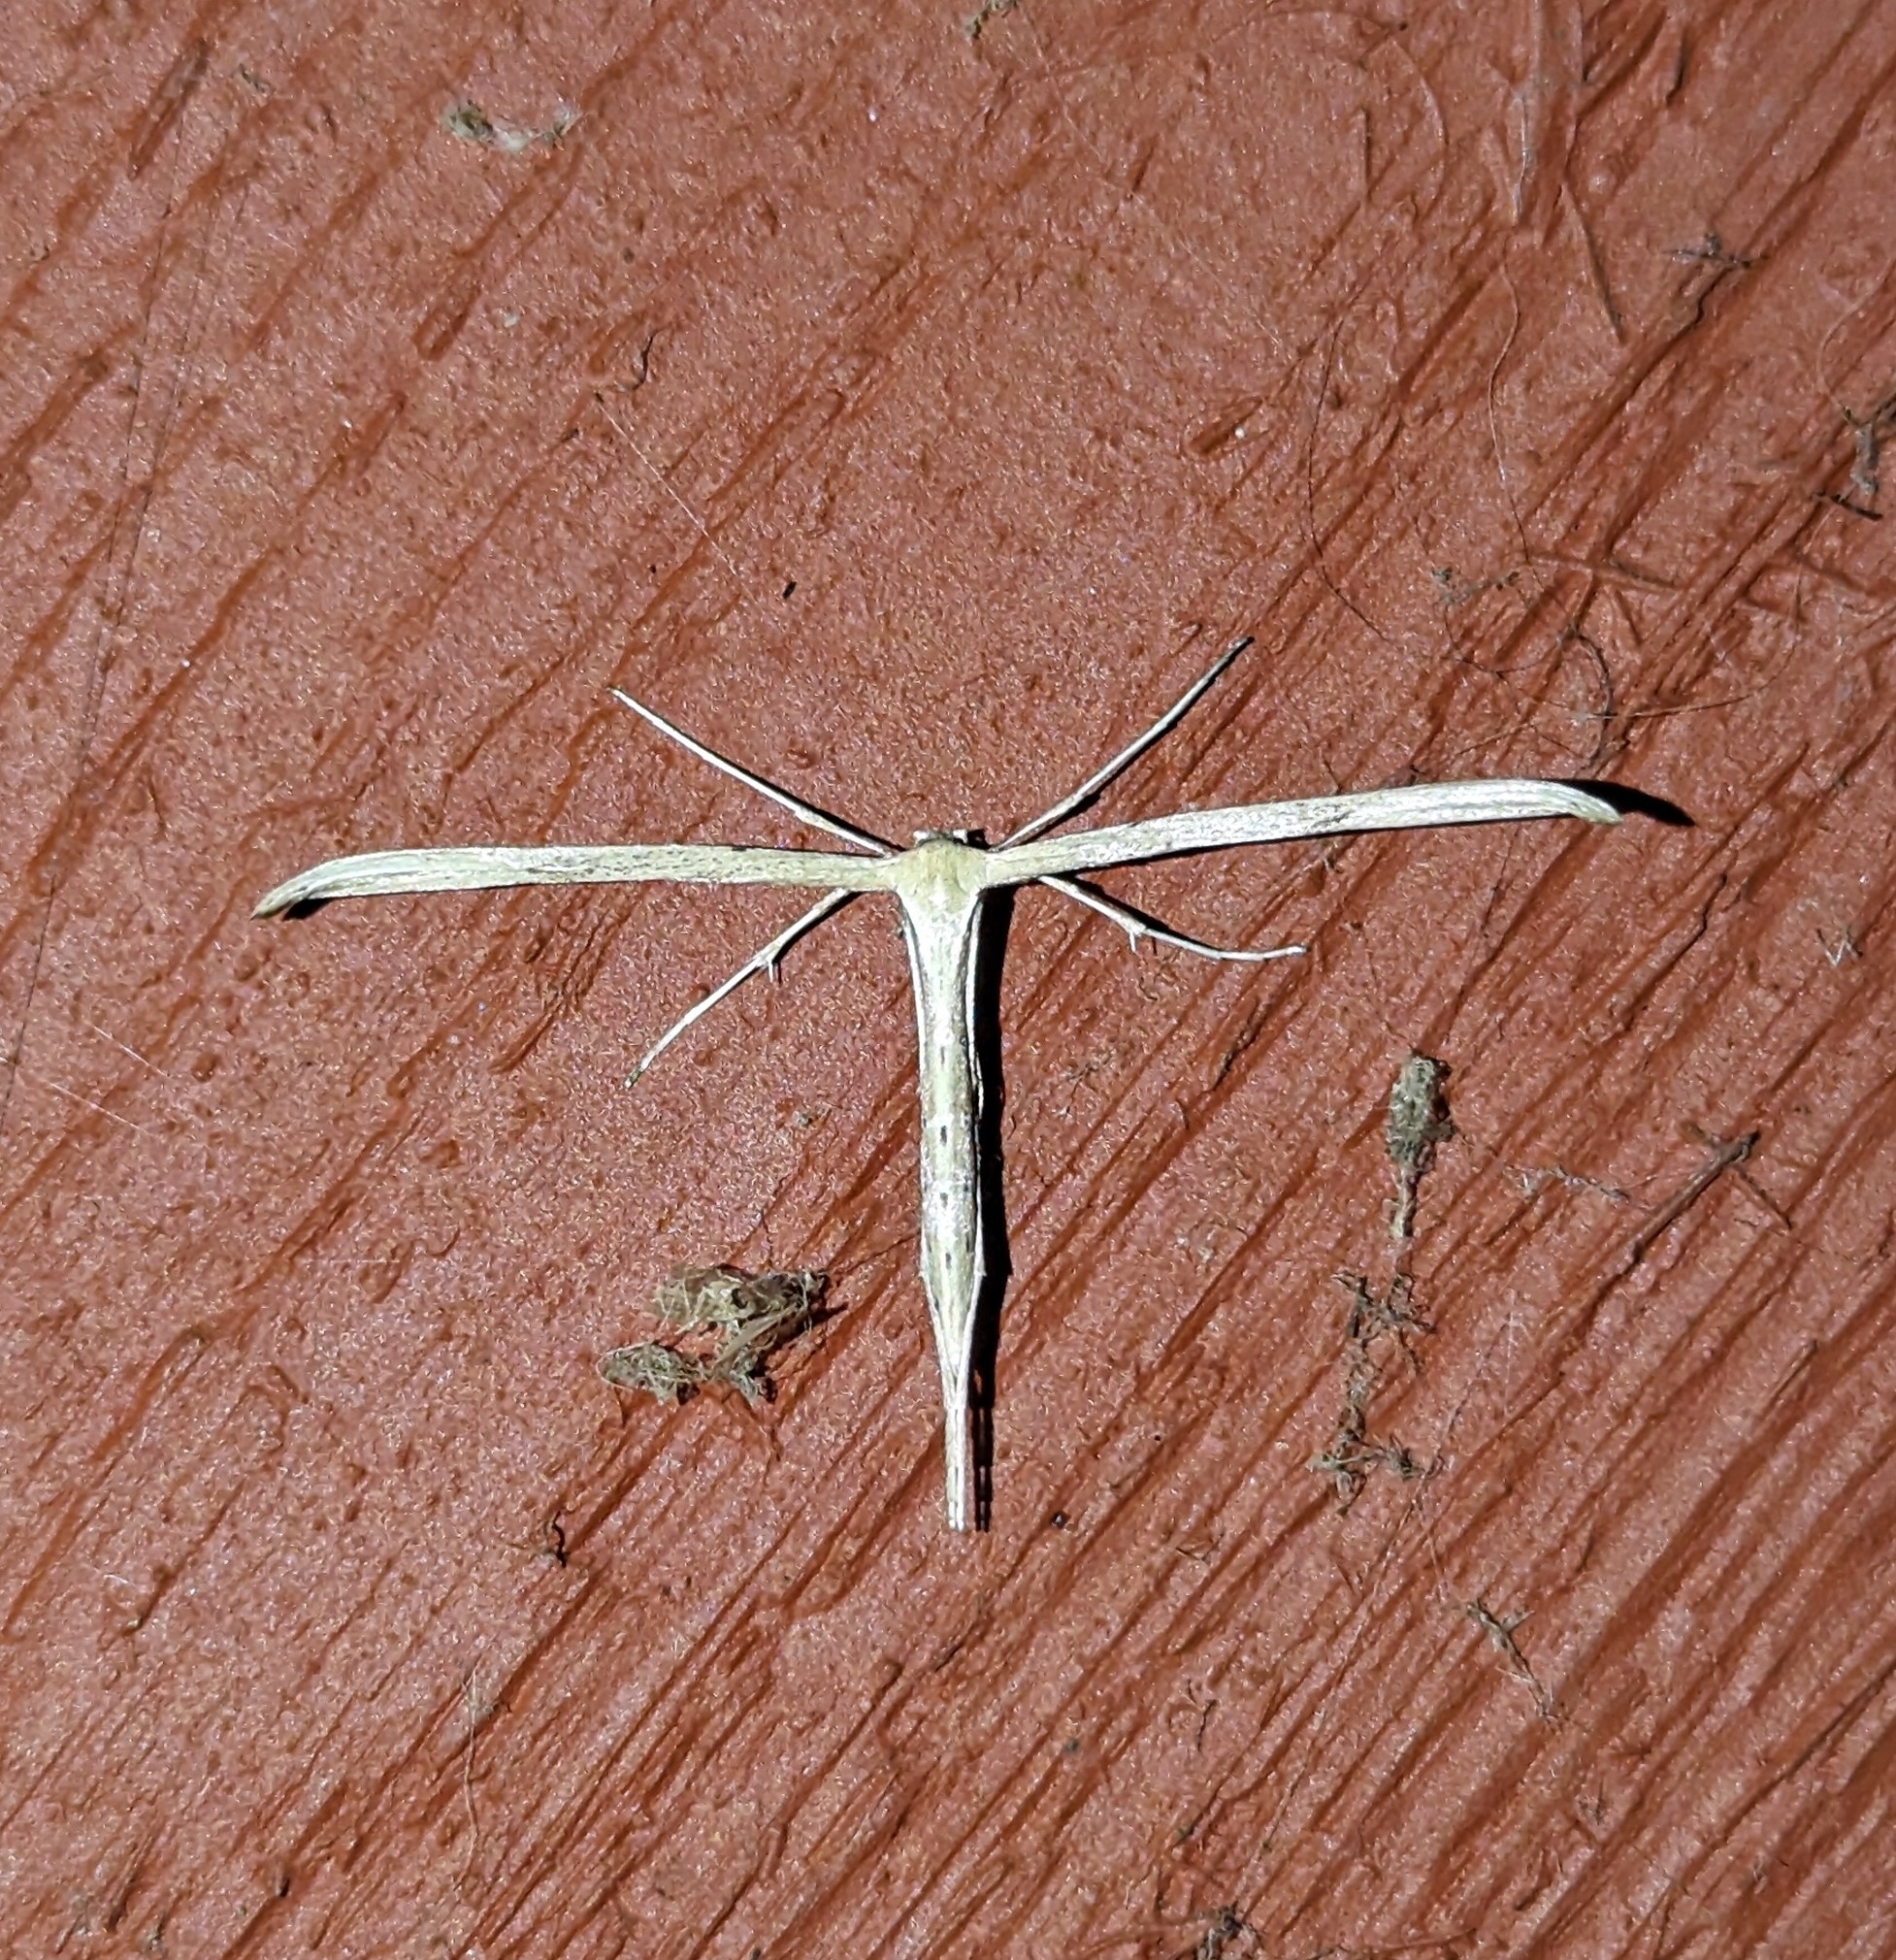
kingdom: Animalia
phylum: Arthropoda
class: Insecta
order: Lepidoptera
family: Pterophoridae
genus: Emmelina
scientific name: Emmelina monodactyla
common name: Common plume
